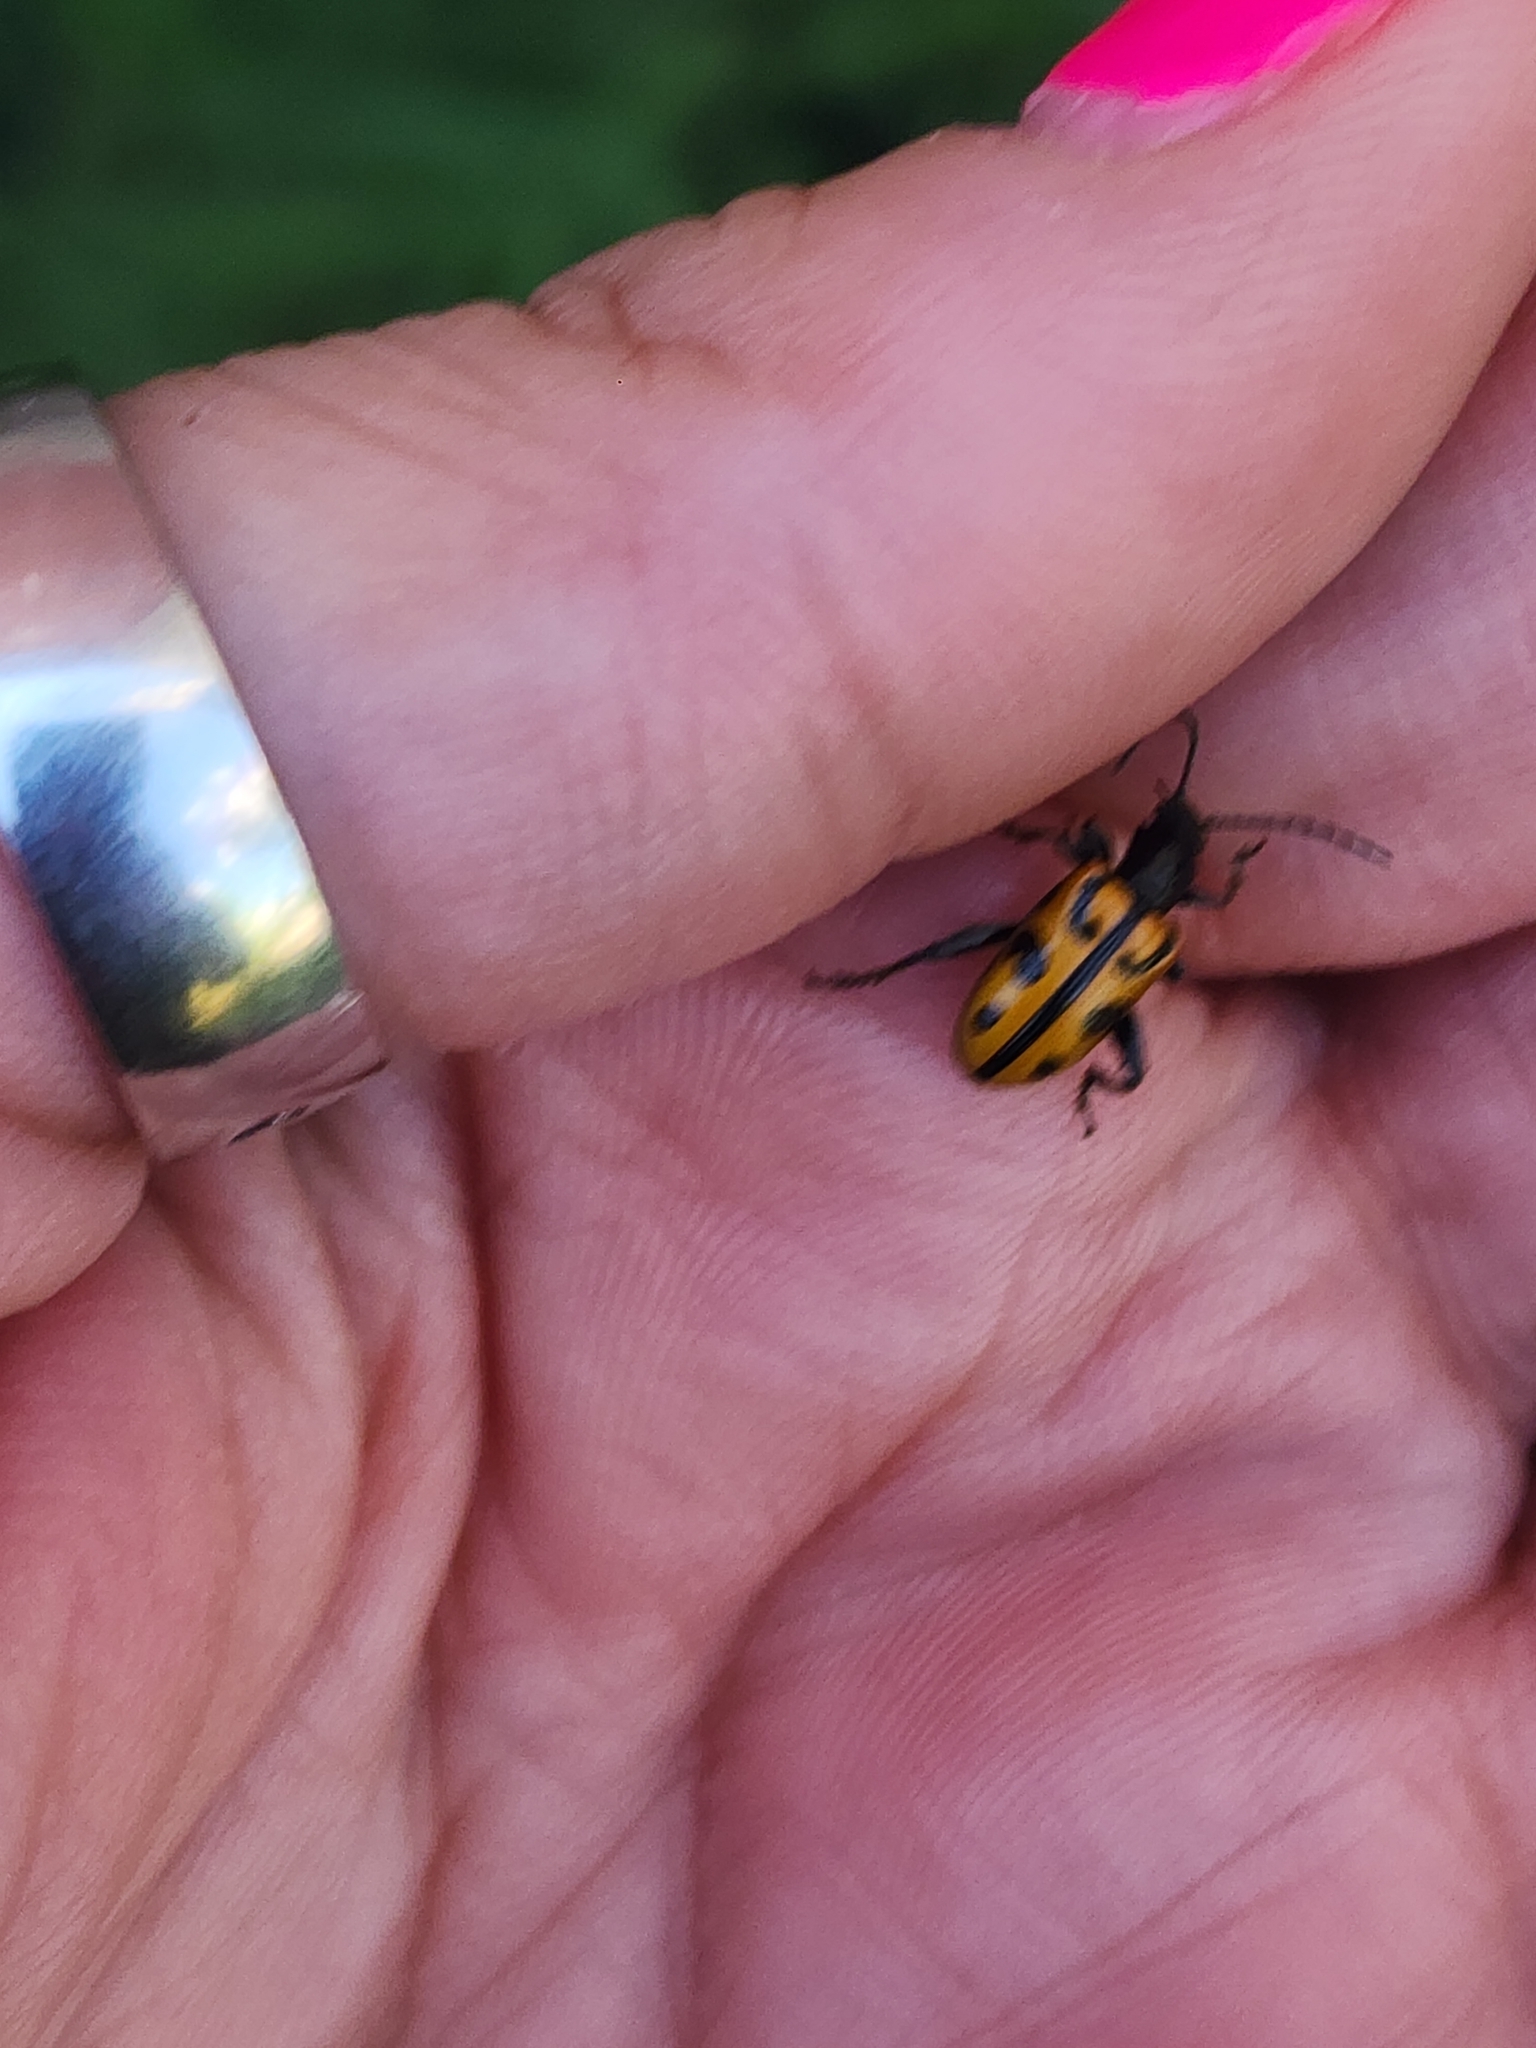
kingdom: Animalia
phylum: Arthropoda
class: Insecta
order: Coleoptera
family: Chrysomelidae
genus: Atalasis
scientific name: Atalasis
